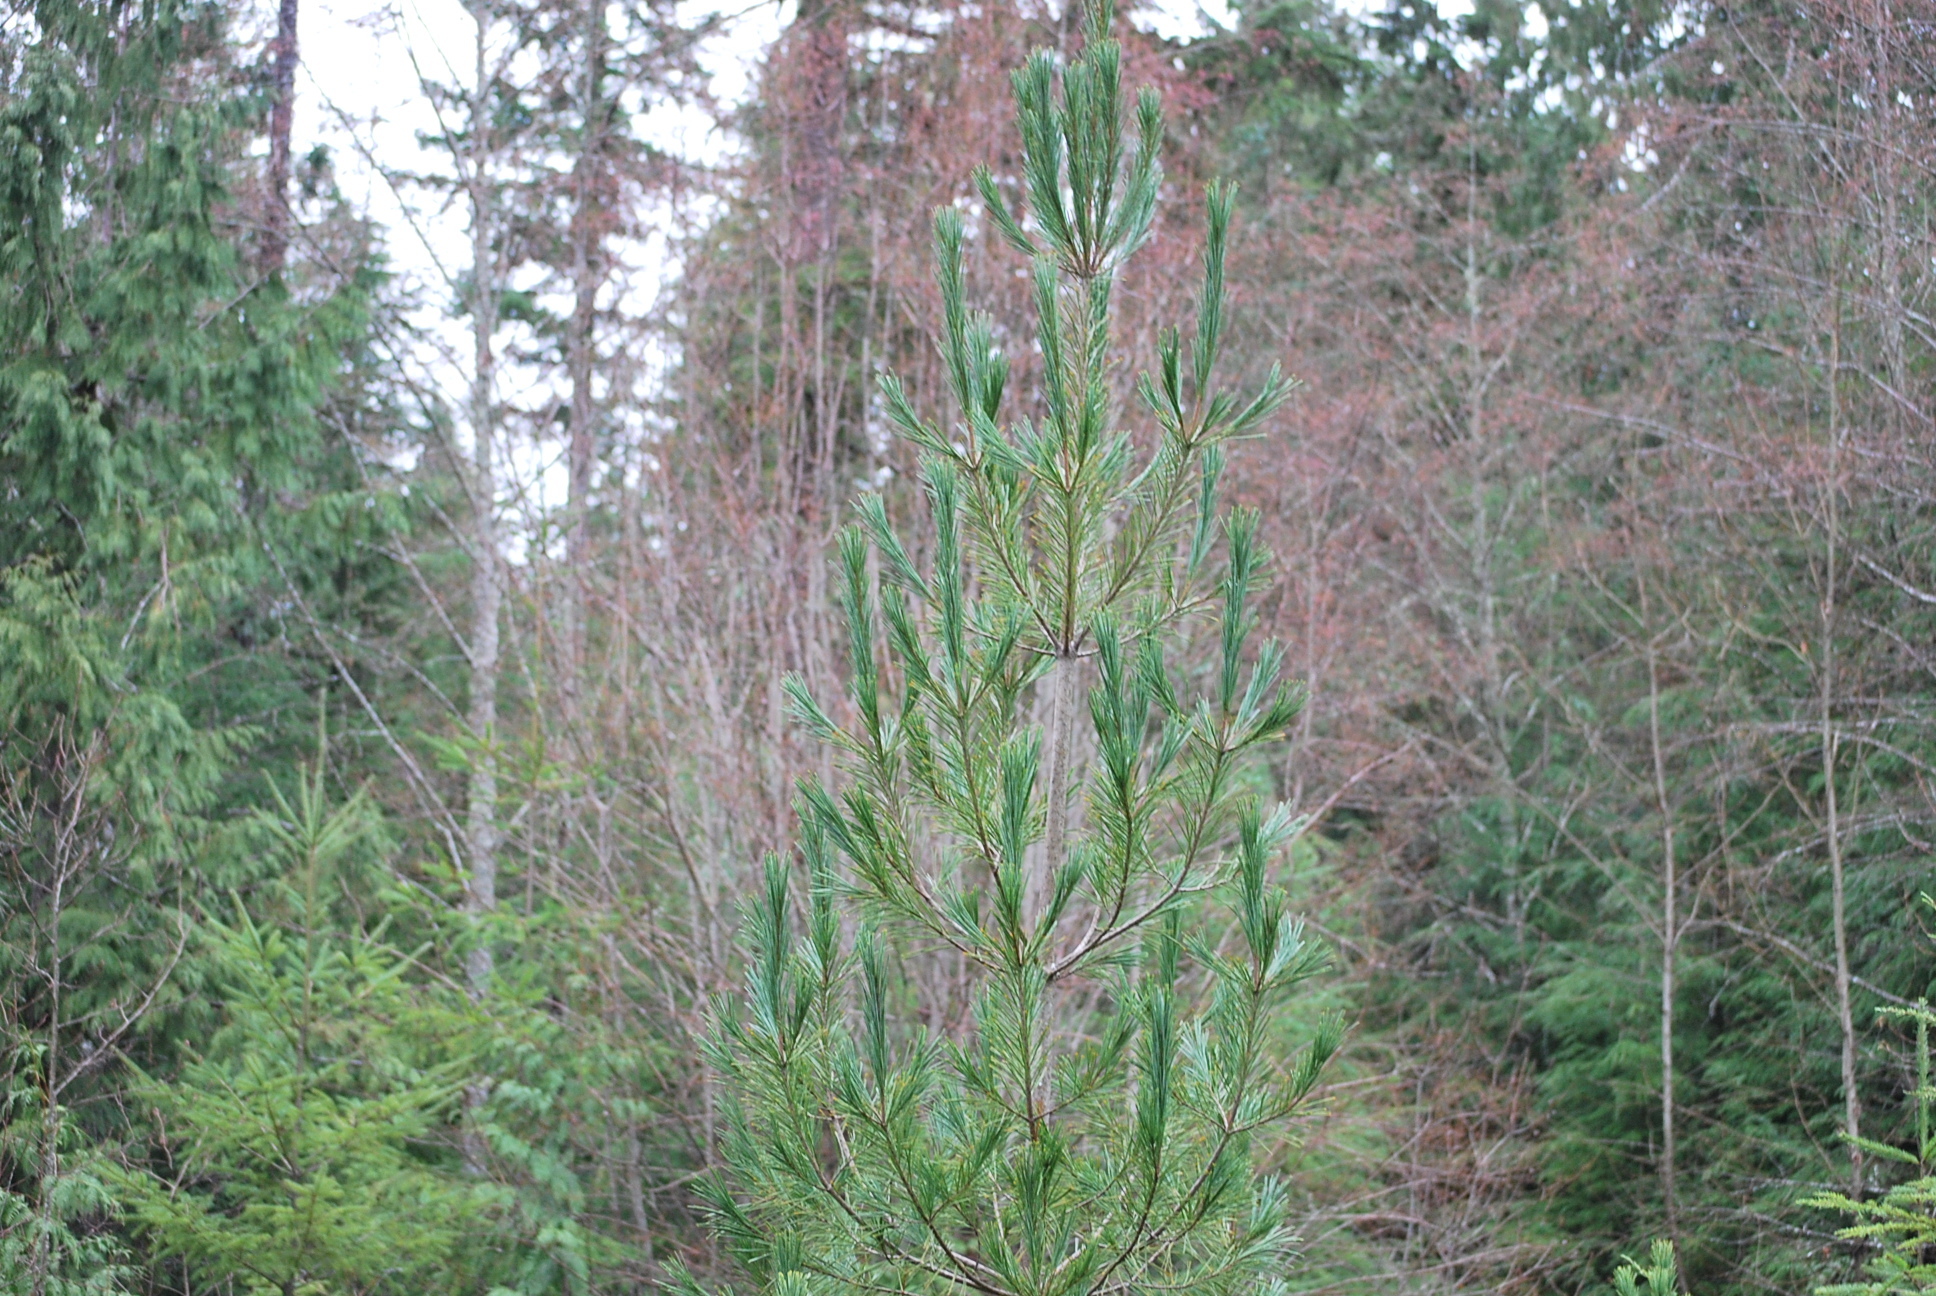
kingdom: Plantae
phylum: Tracheophyta
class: Pinopsida
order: Pinales
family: Pinaceae
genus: Pinus
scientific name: Pinus monticola
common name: Western white pine
